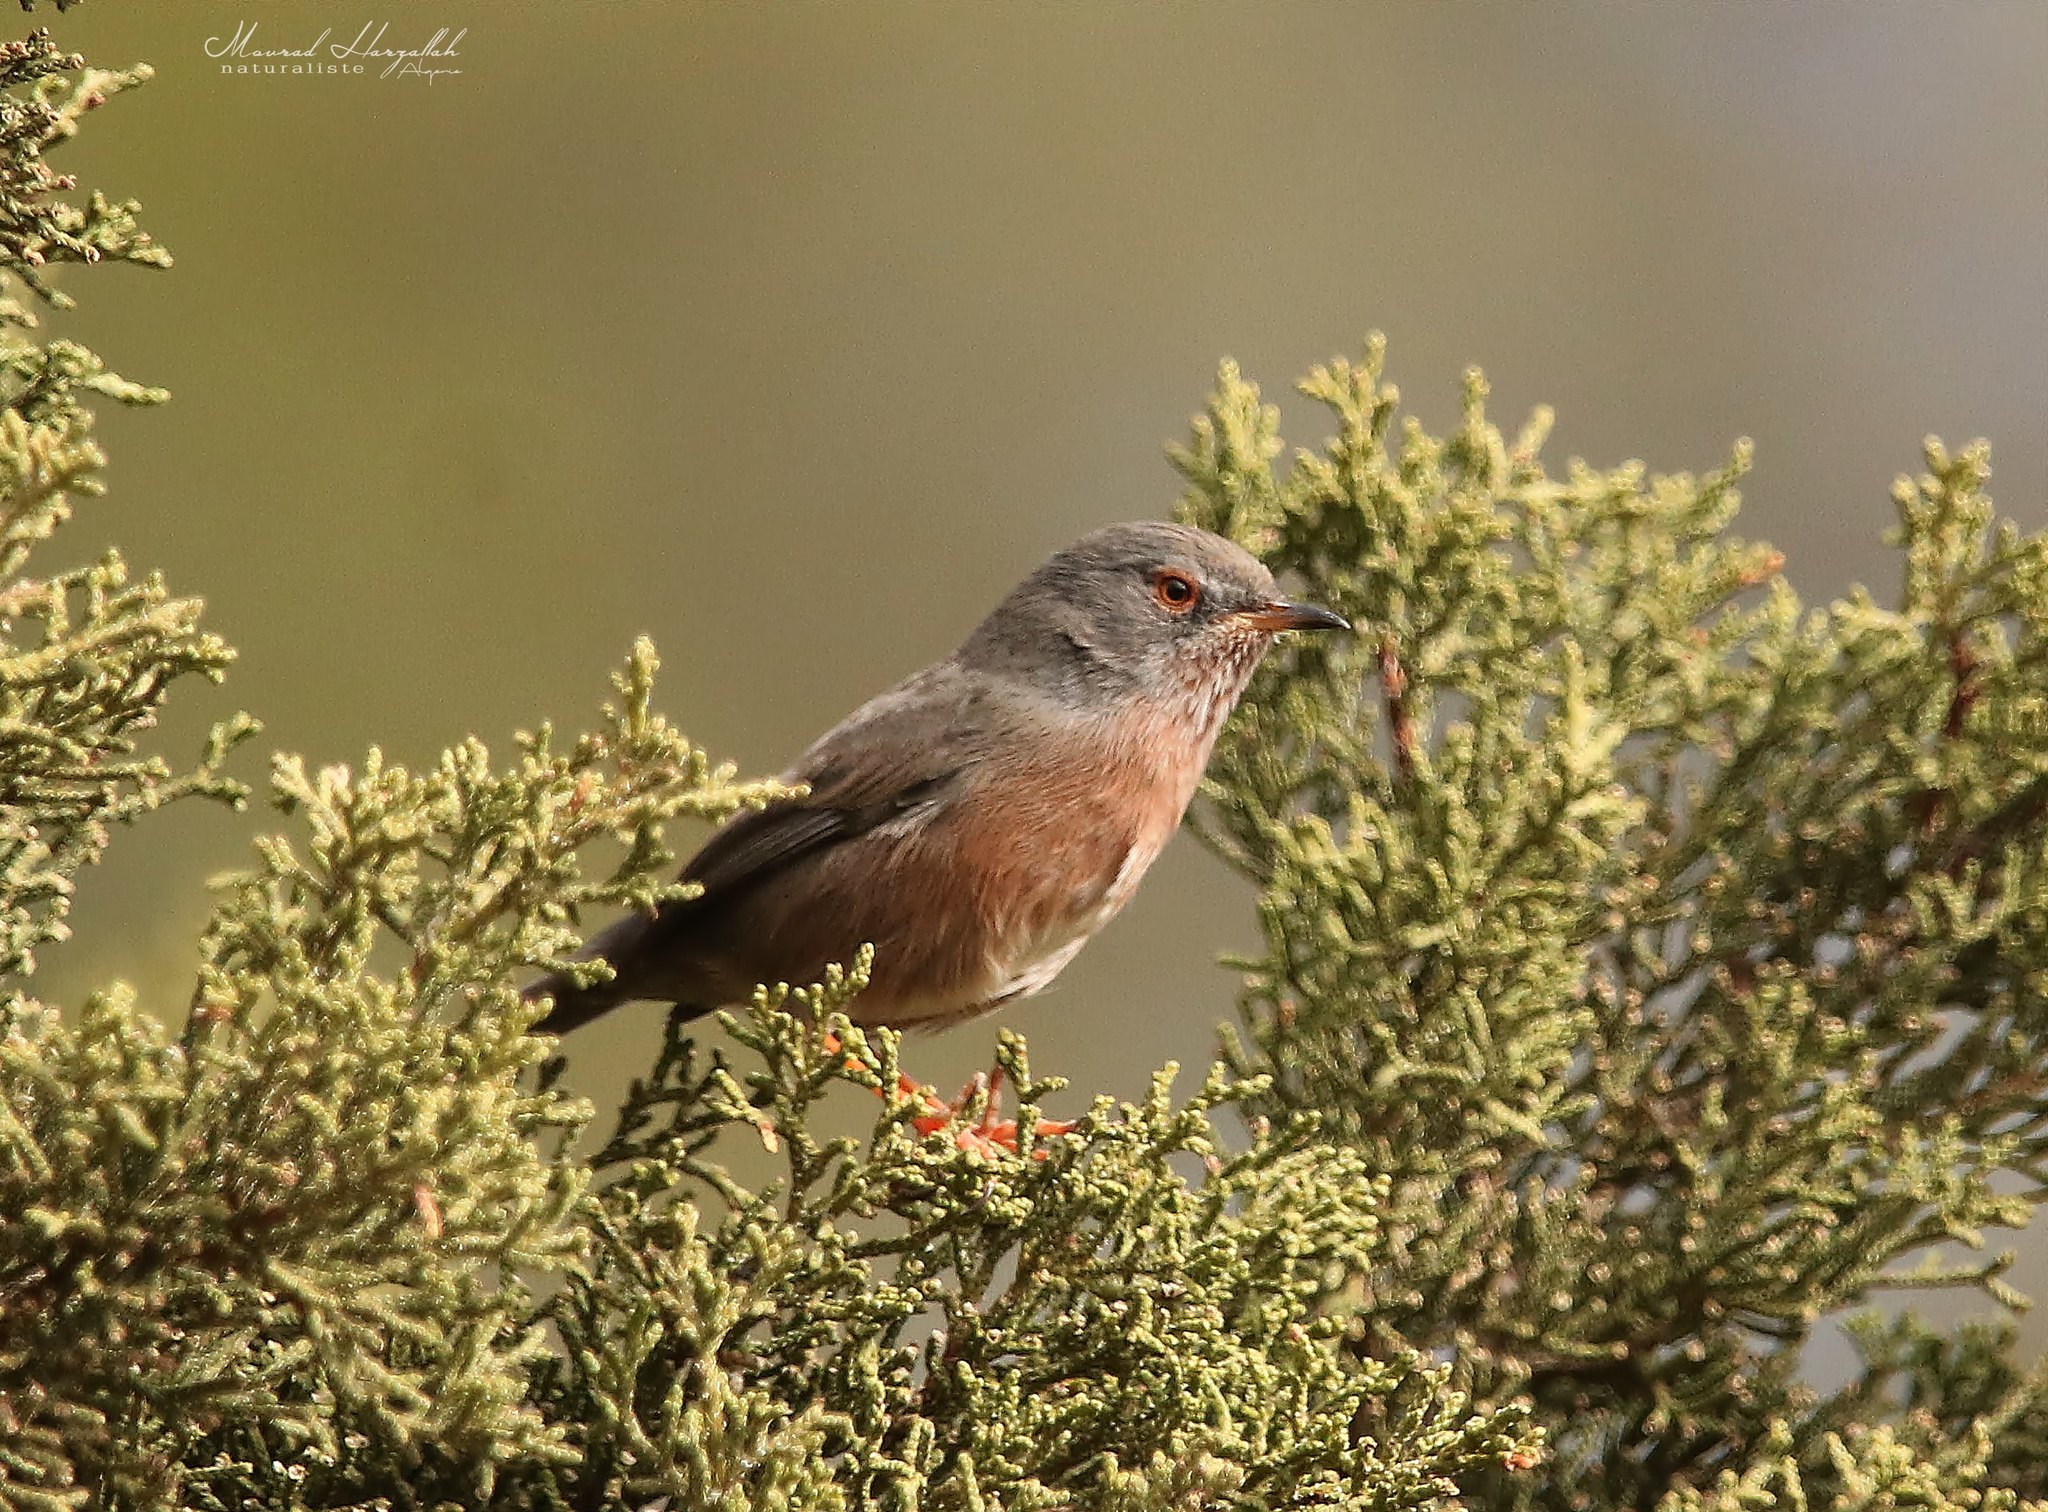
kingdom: Animalia
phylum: Chordata
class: Aves
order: Passeriformes
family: Sylviidae
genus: Sylvia
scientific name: Sylvia undata
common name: Dartford warbler
